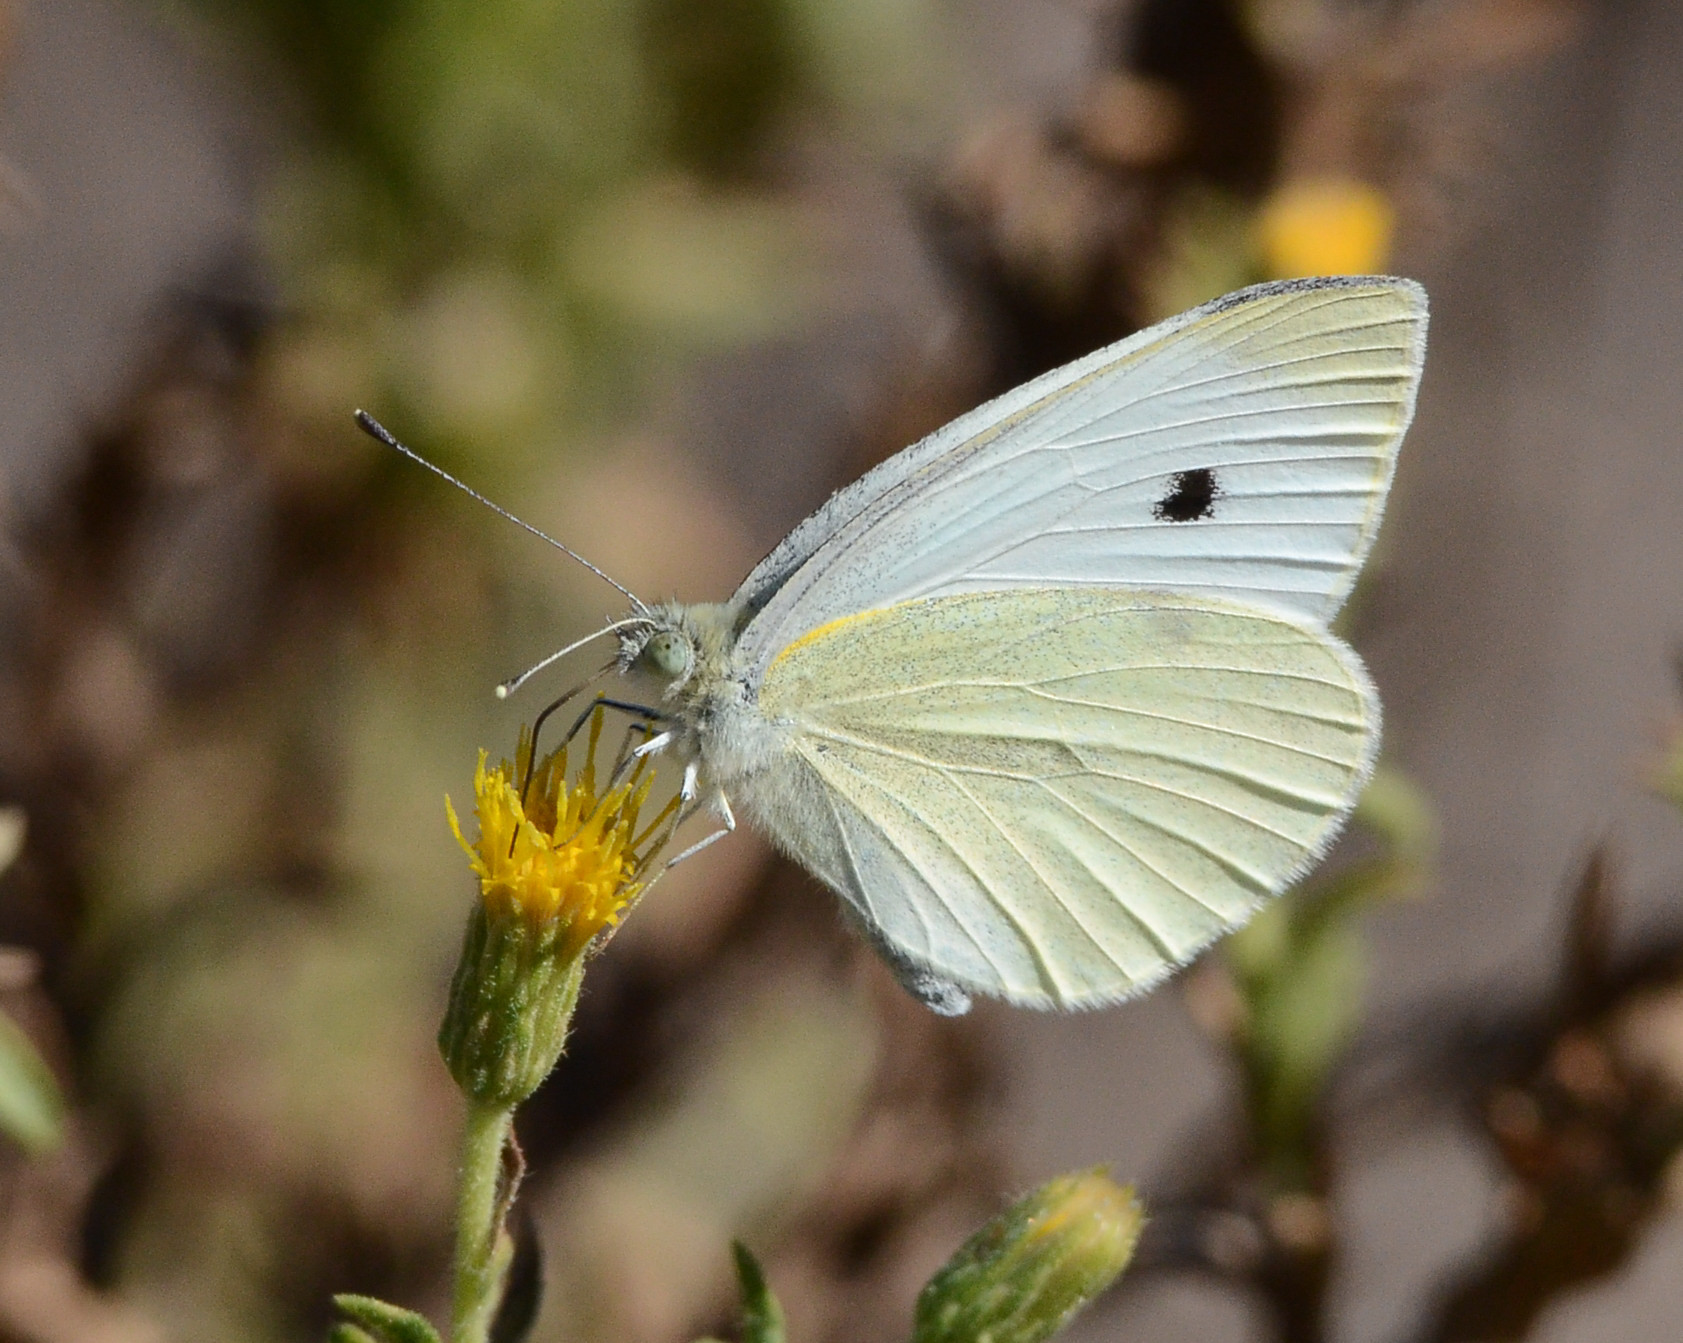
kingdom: Animalia
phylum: Arthropoda
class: Insecta
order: Lepidoptera
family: Pieridae
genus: Pieris
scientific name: Pieris rapae
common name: Small white
